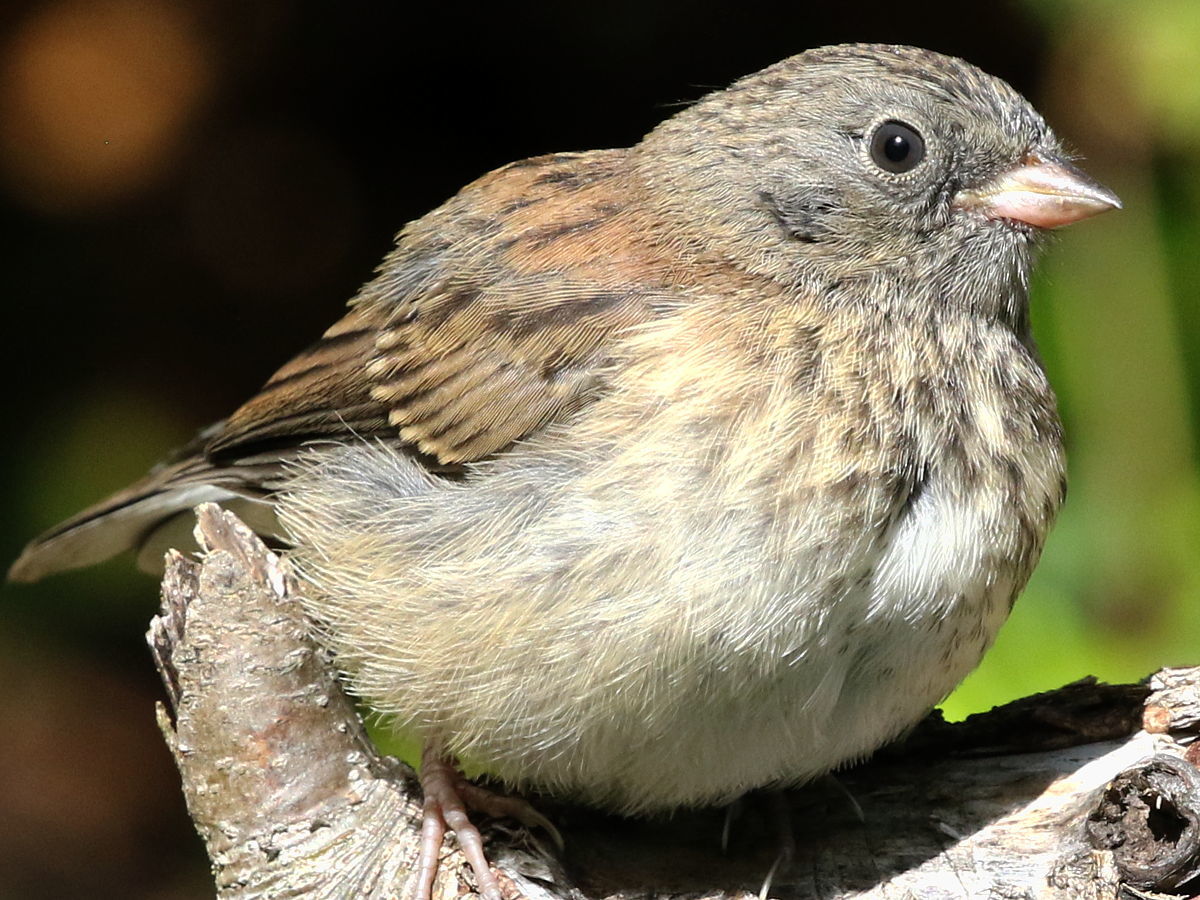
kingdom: Animalia
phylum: Chordata
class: Aves
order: Passeriformes
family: Passerellidae
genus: Junco
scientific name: Junco hyemalis
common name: Dark-eyed junco
